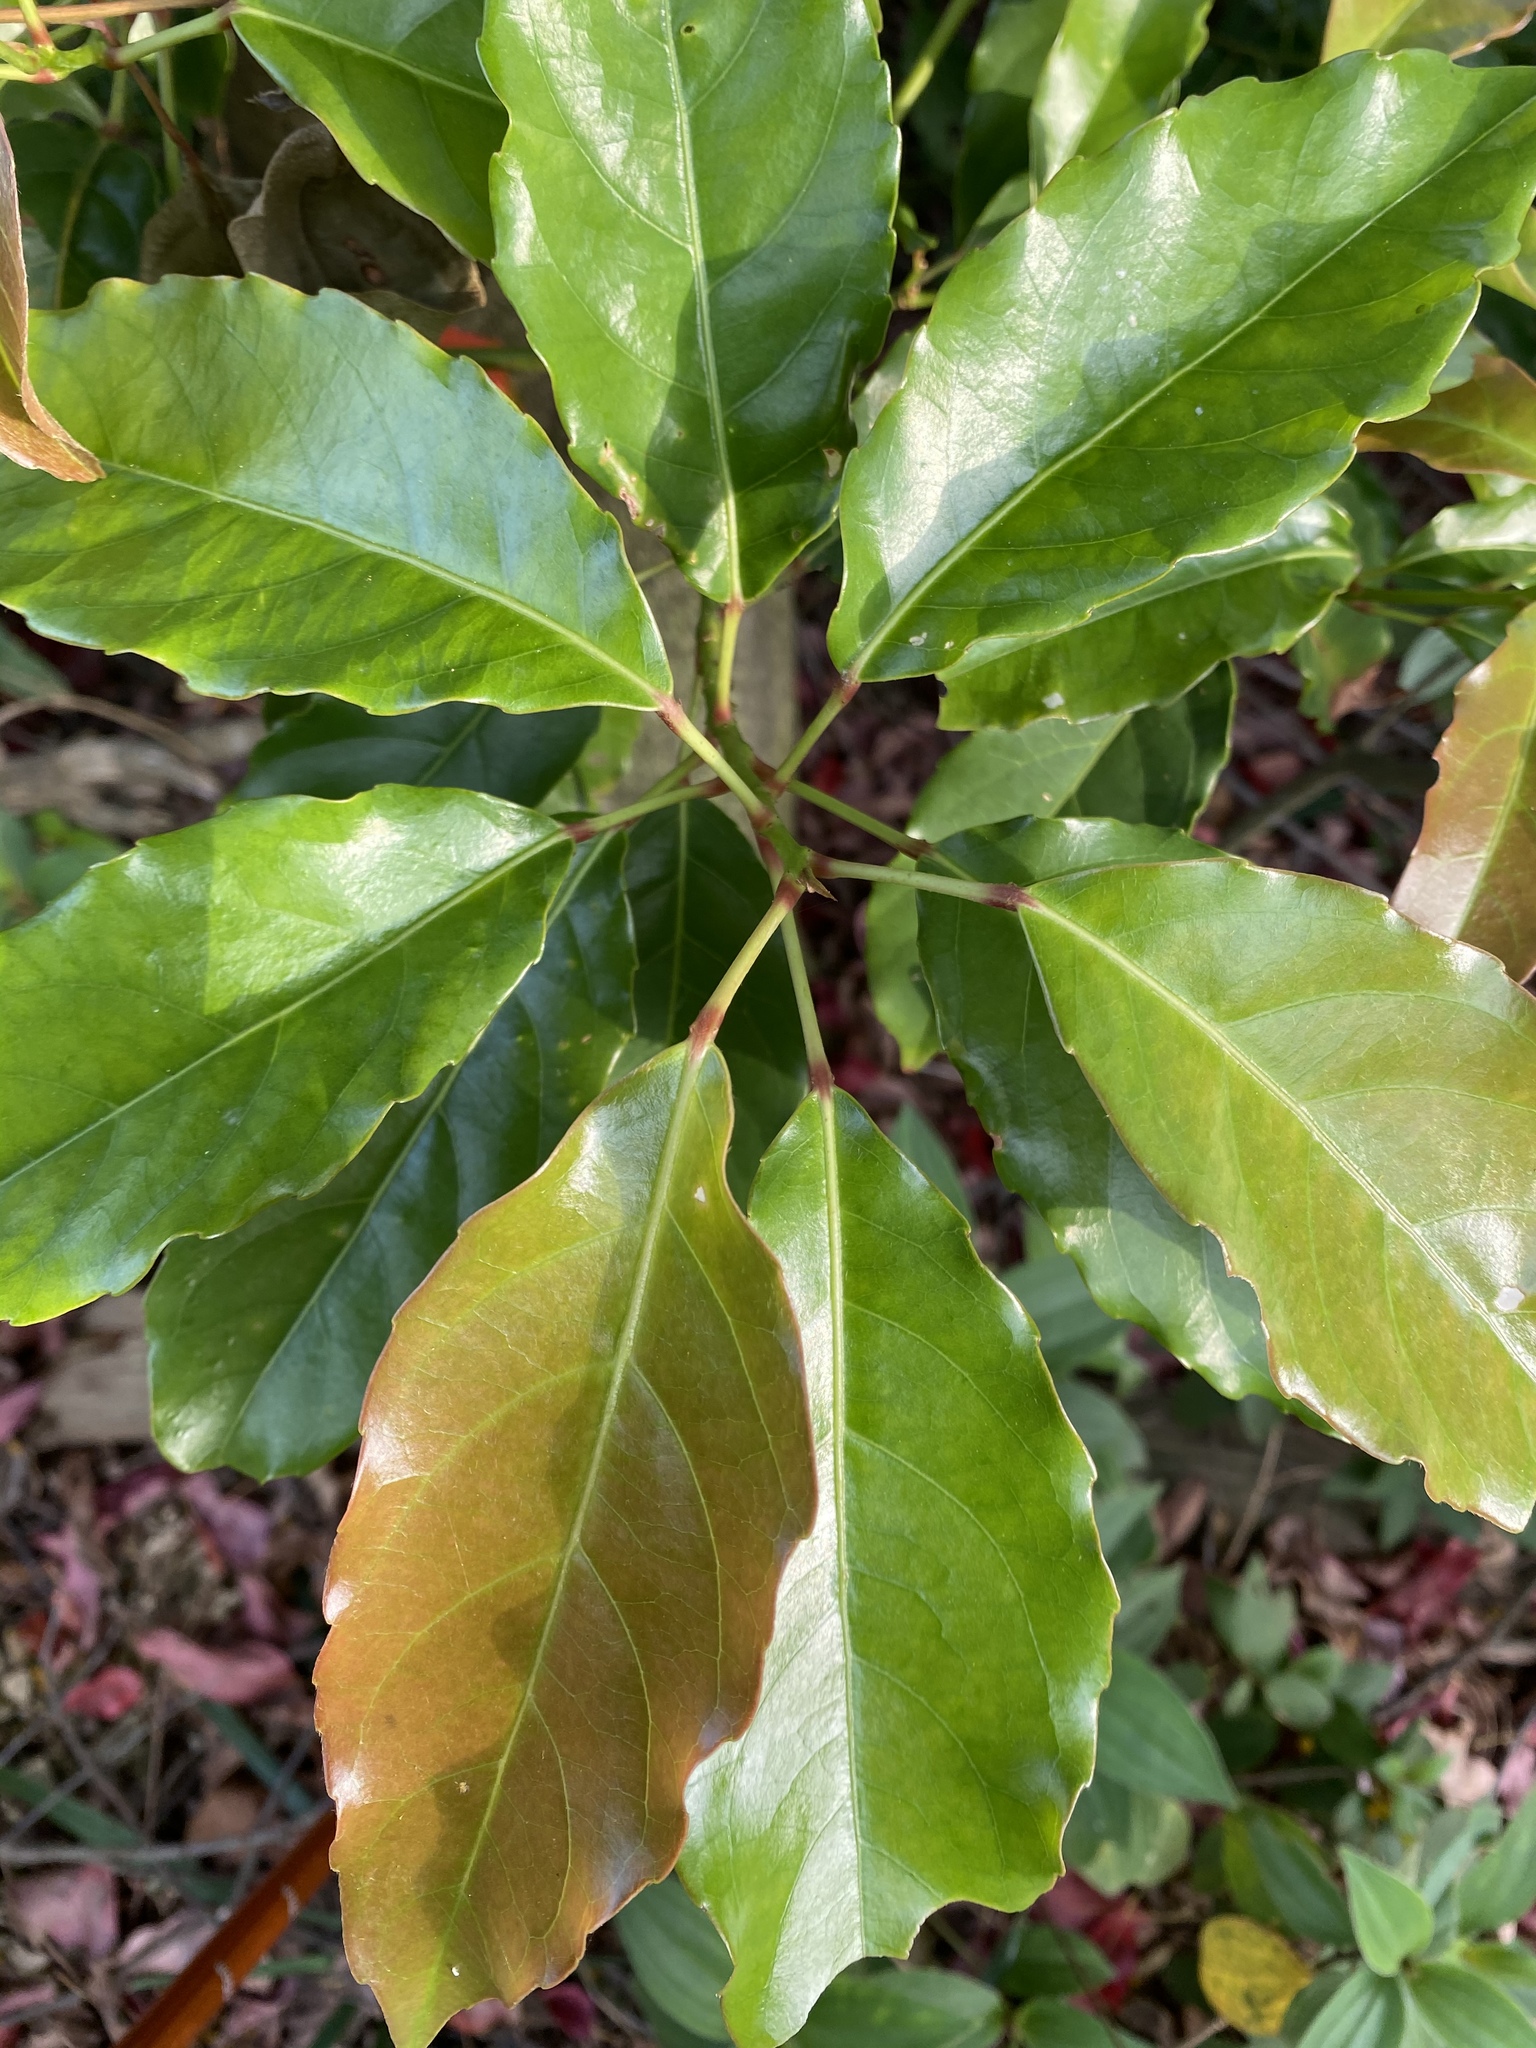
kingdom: Plantae
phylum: Tracheophyta
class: Magnoliopsida
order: Oxalidales
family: Elaeocarpaceae
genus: Elaeocarpus
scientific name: Elaeocarpus serratus
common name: Ceylon-olive
